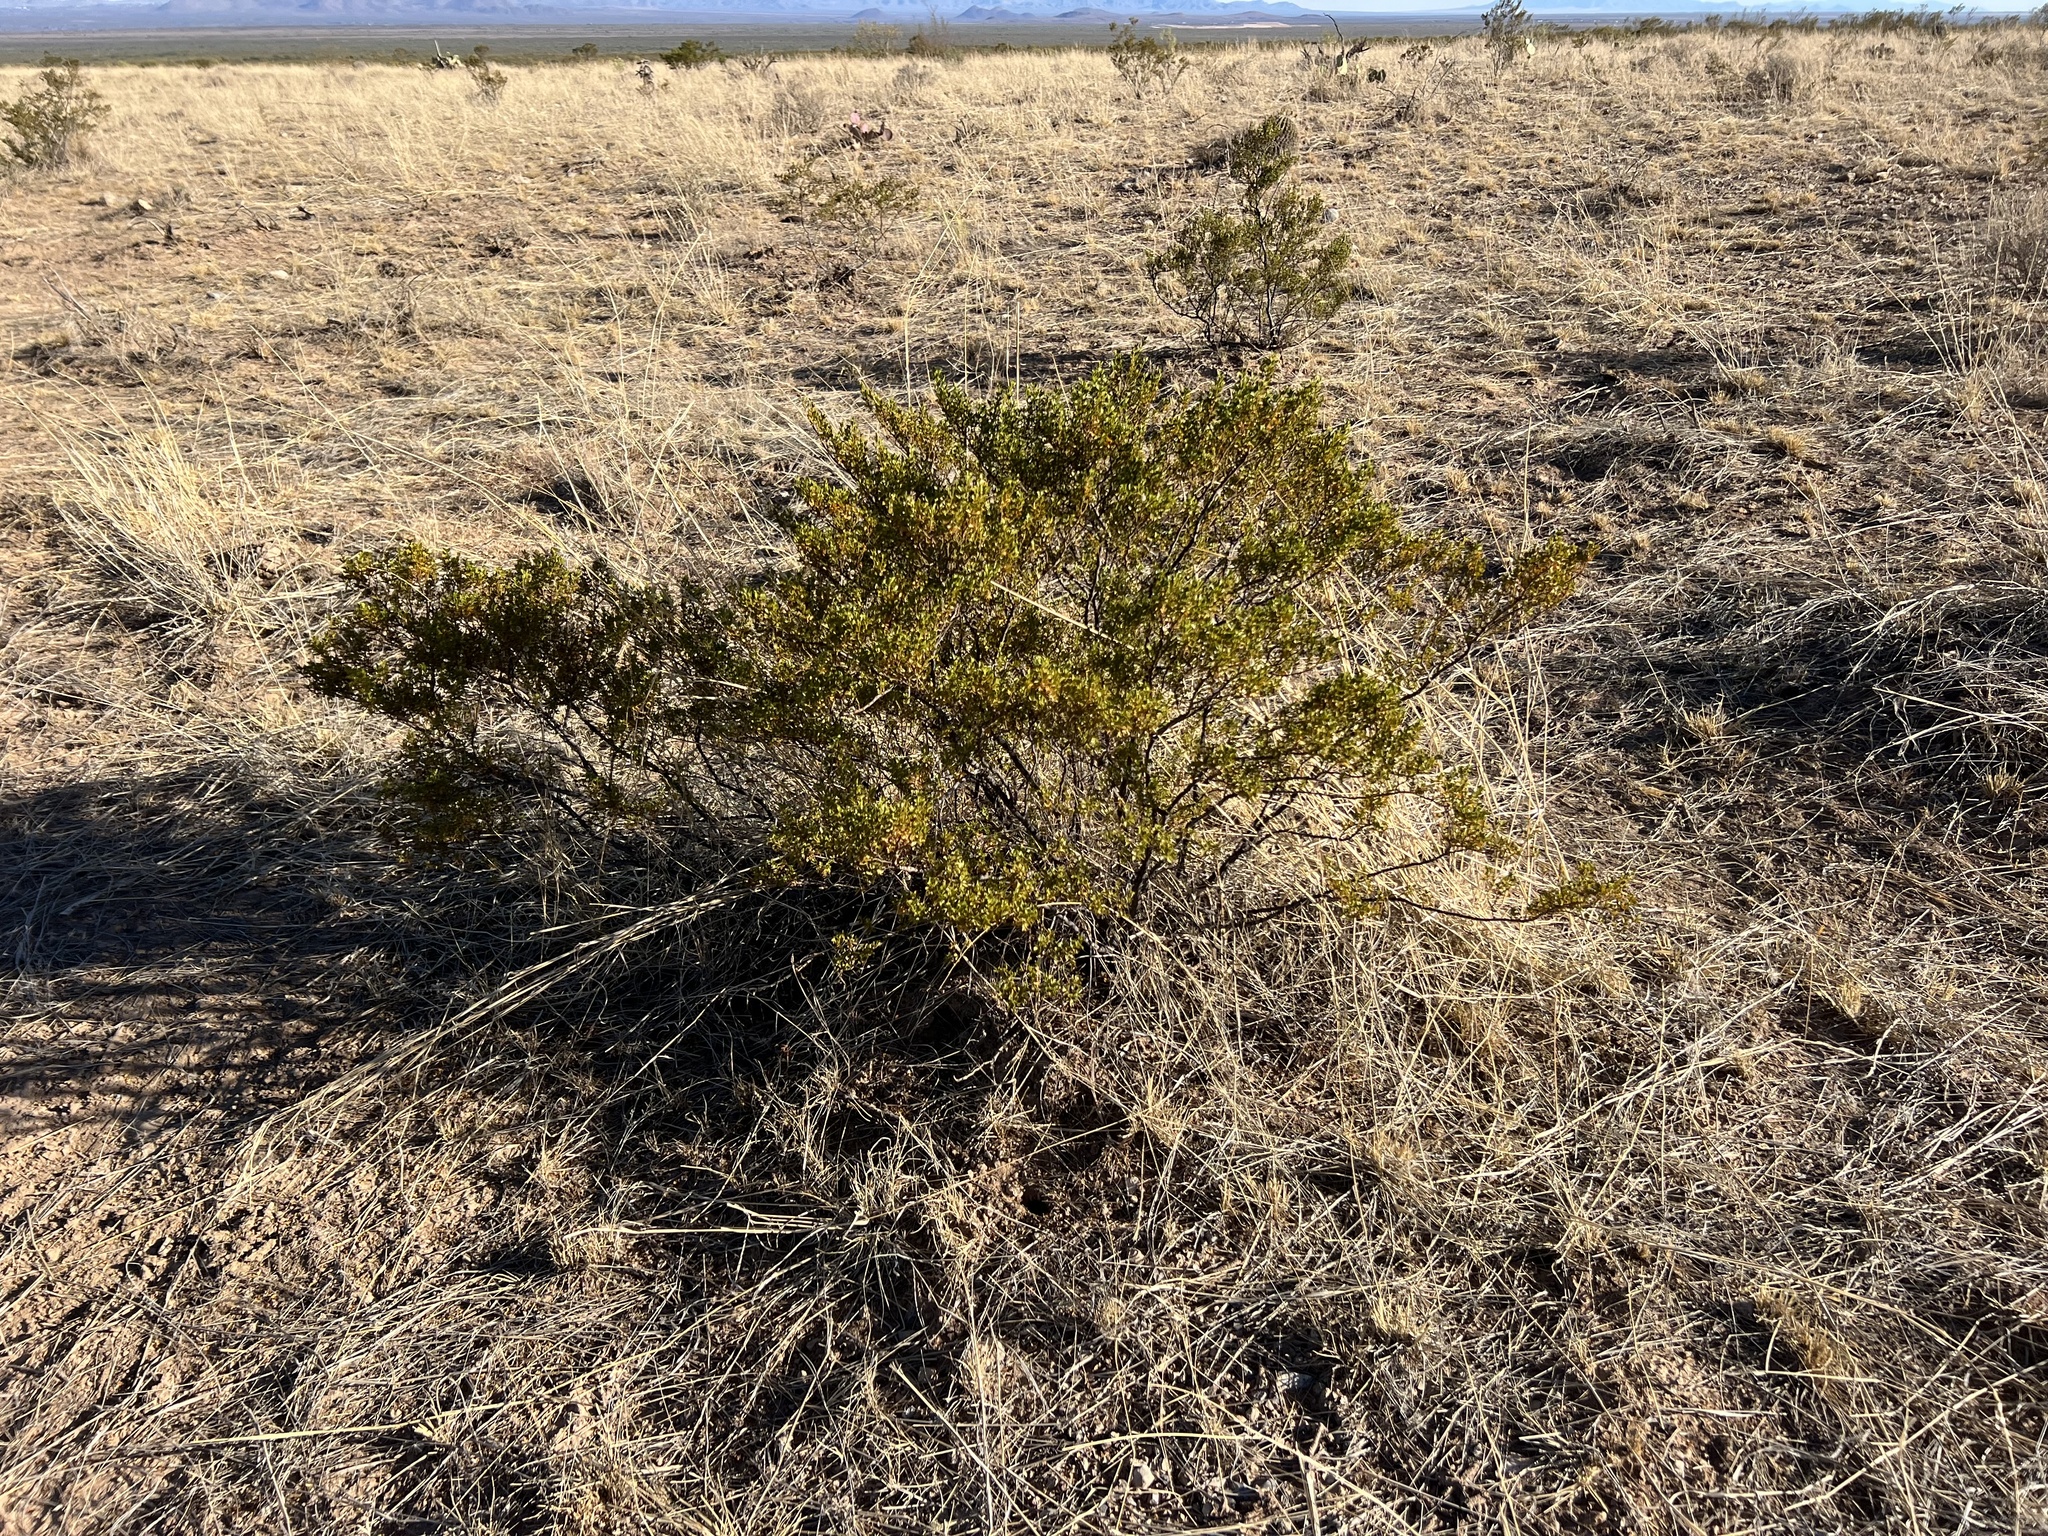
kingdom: Plantae
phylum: Tracheophyta
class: Magnoliopsida
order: Zygophyllales
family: Zygophyllaceae
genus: Larrea
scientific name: Larrea tridentata
